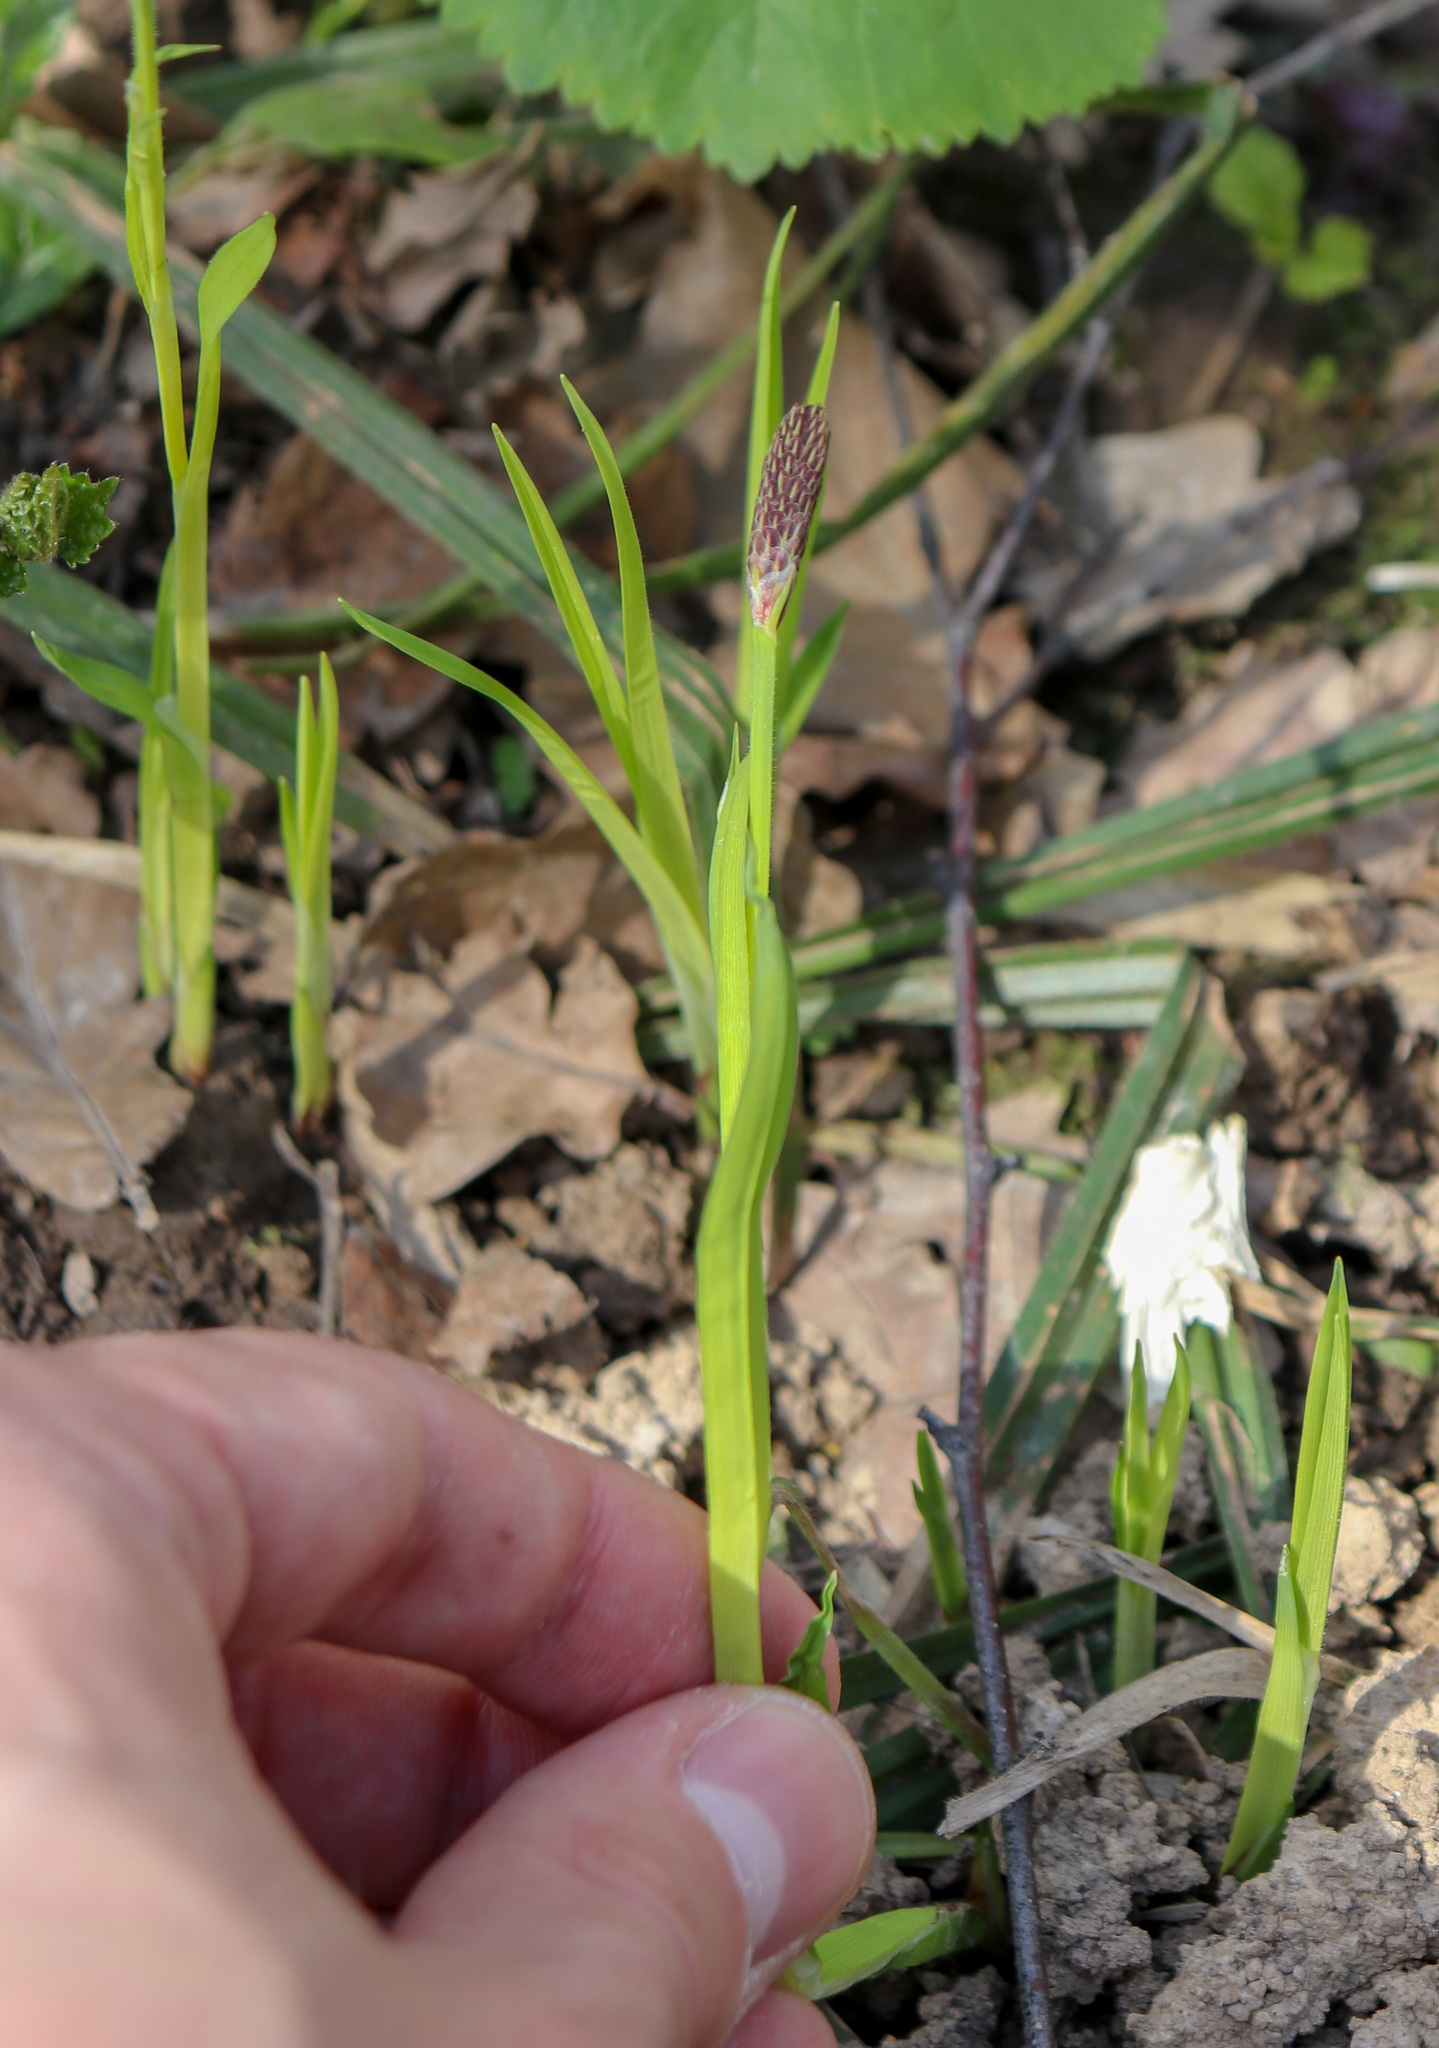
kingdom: Plantae
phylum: Tracheophyta
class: Liliopsida
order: Poales
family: Cyperaceae
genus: Carex
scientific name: Carex pilosa
